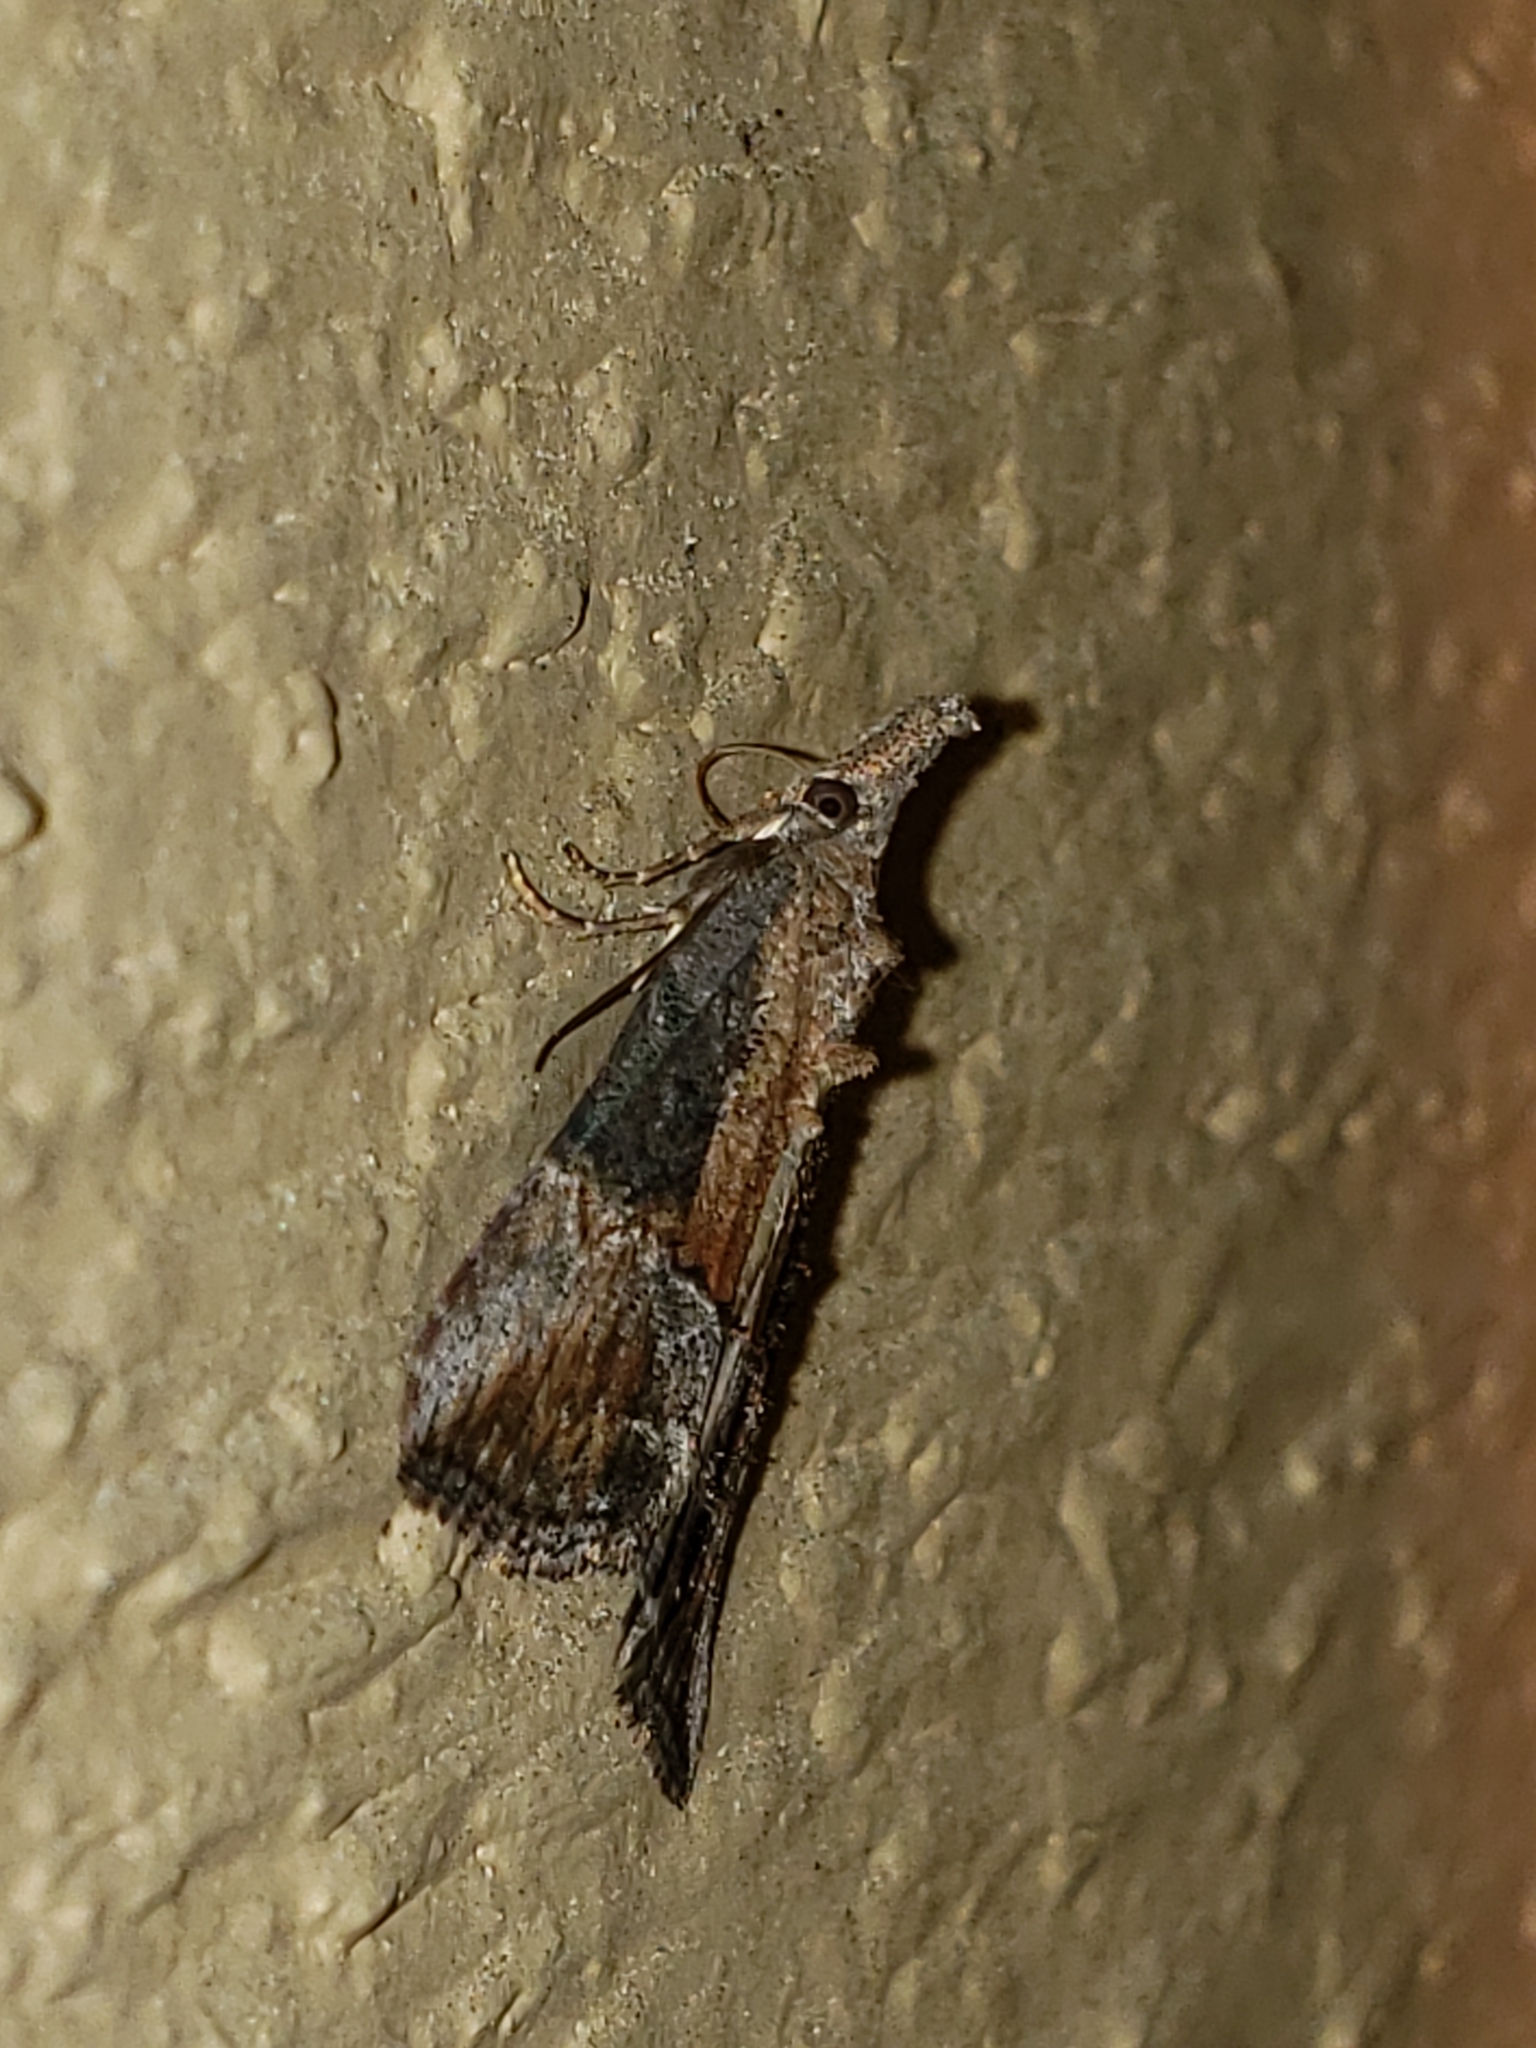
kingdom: Animalia
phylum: Arthropoda
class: Insecta
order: Lepidoptera
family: Erebidae
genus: Hypena
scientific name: Hypena scabra
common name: Green cloverworm
